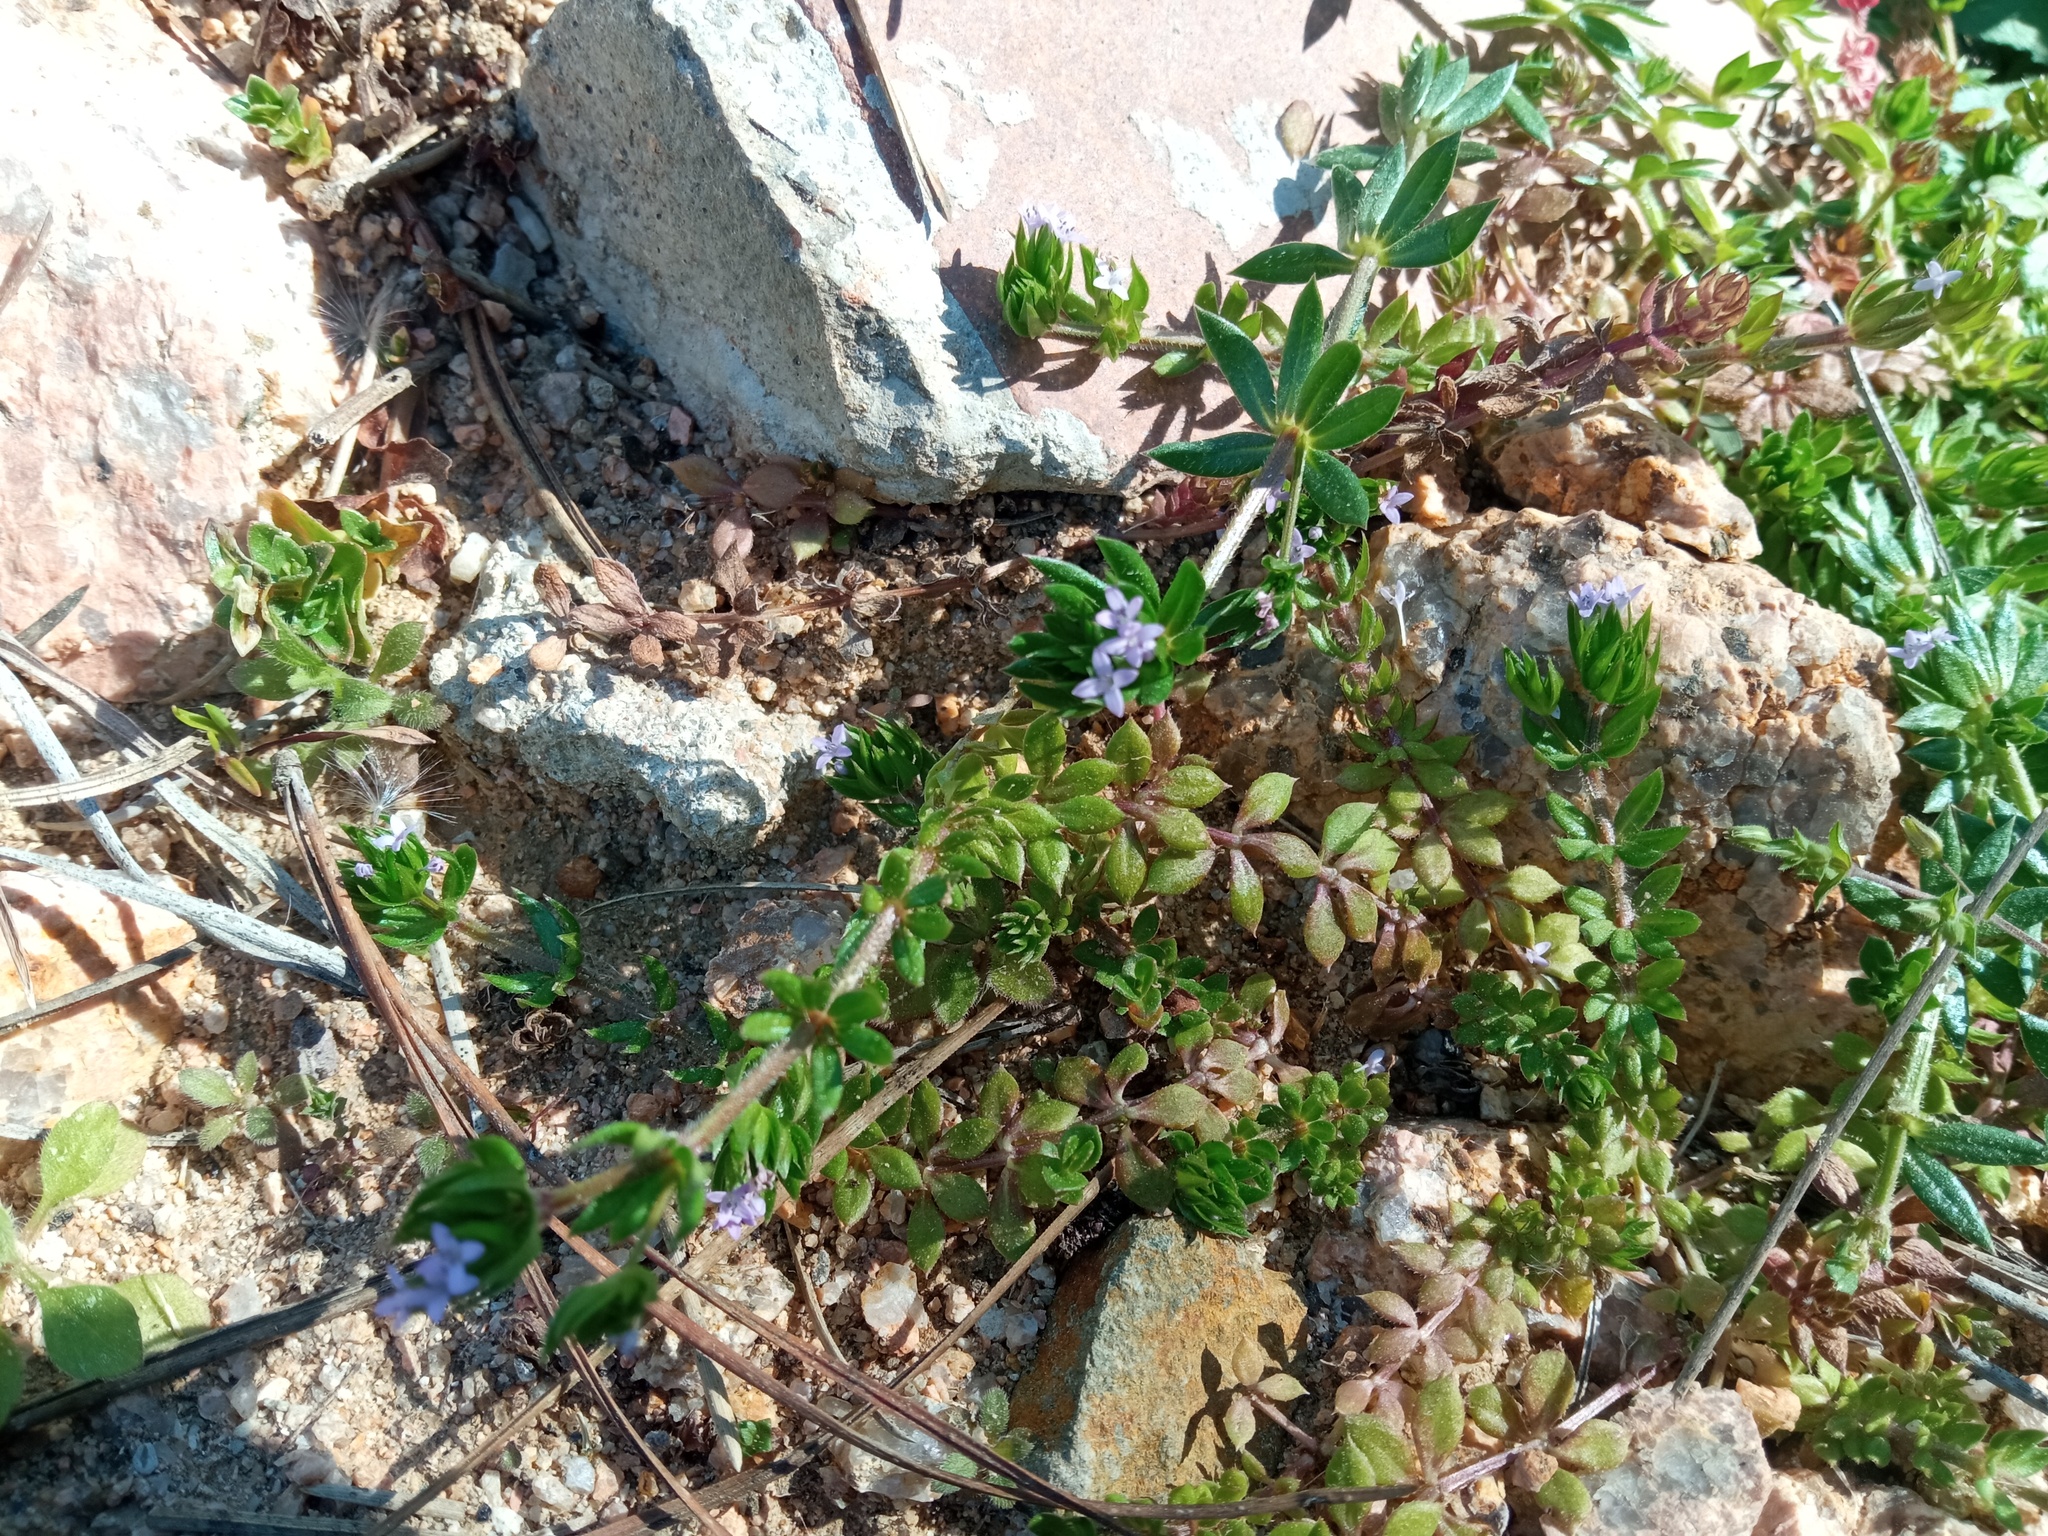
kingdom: Plantae
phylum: Tracheophyta
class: Magnoliopsida
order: Gentianales
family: Rubiaceae
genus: Sherardia
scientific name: Sherardia arvensis
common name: Field madder
